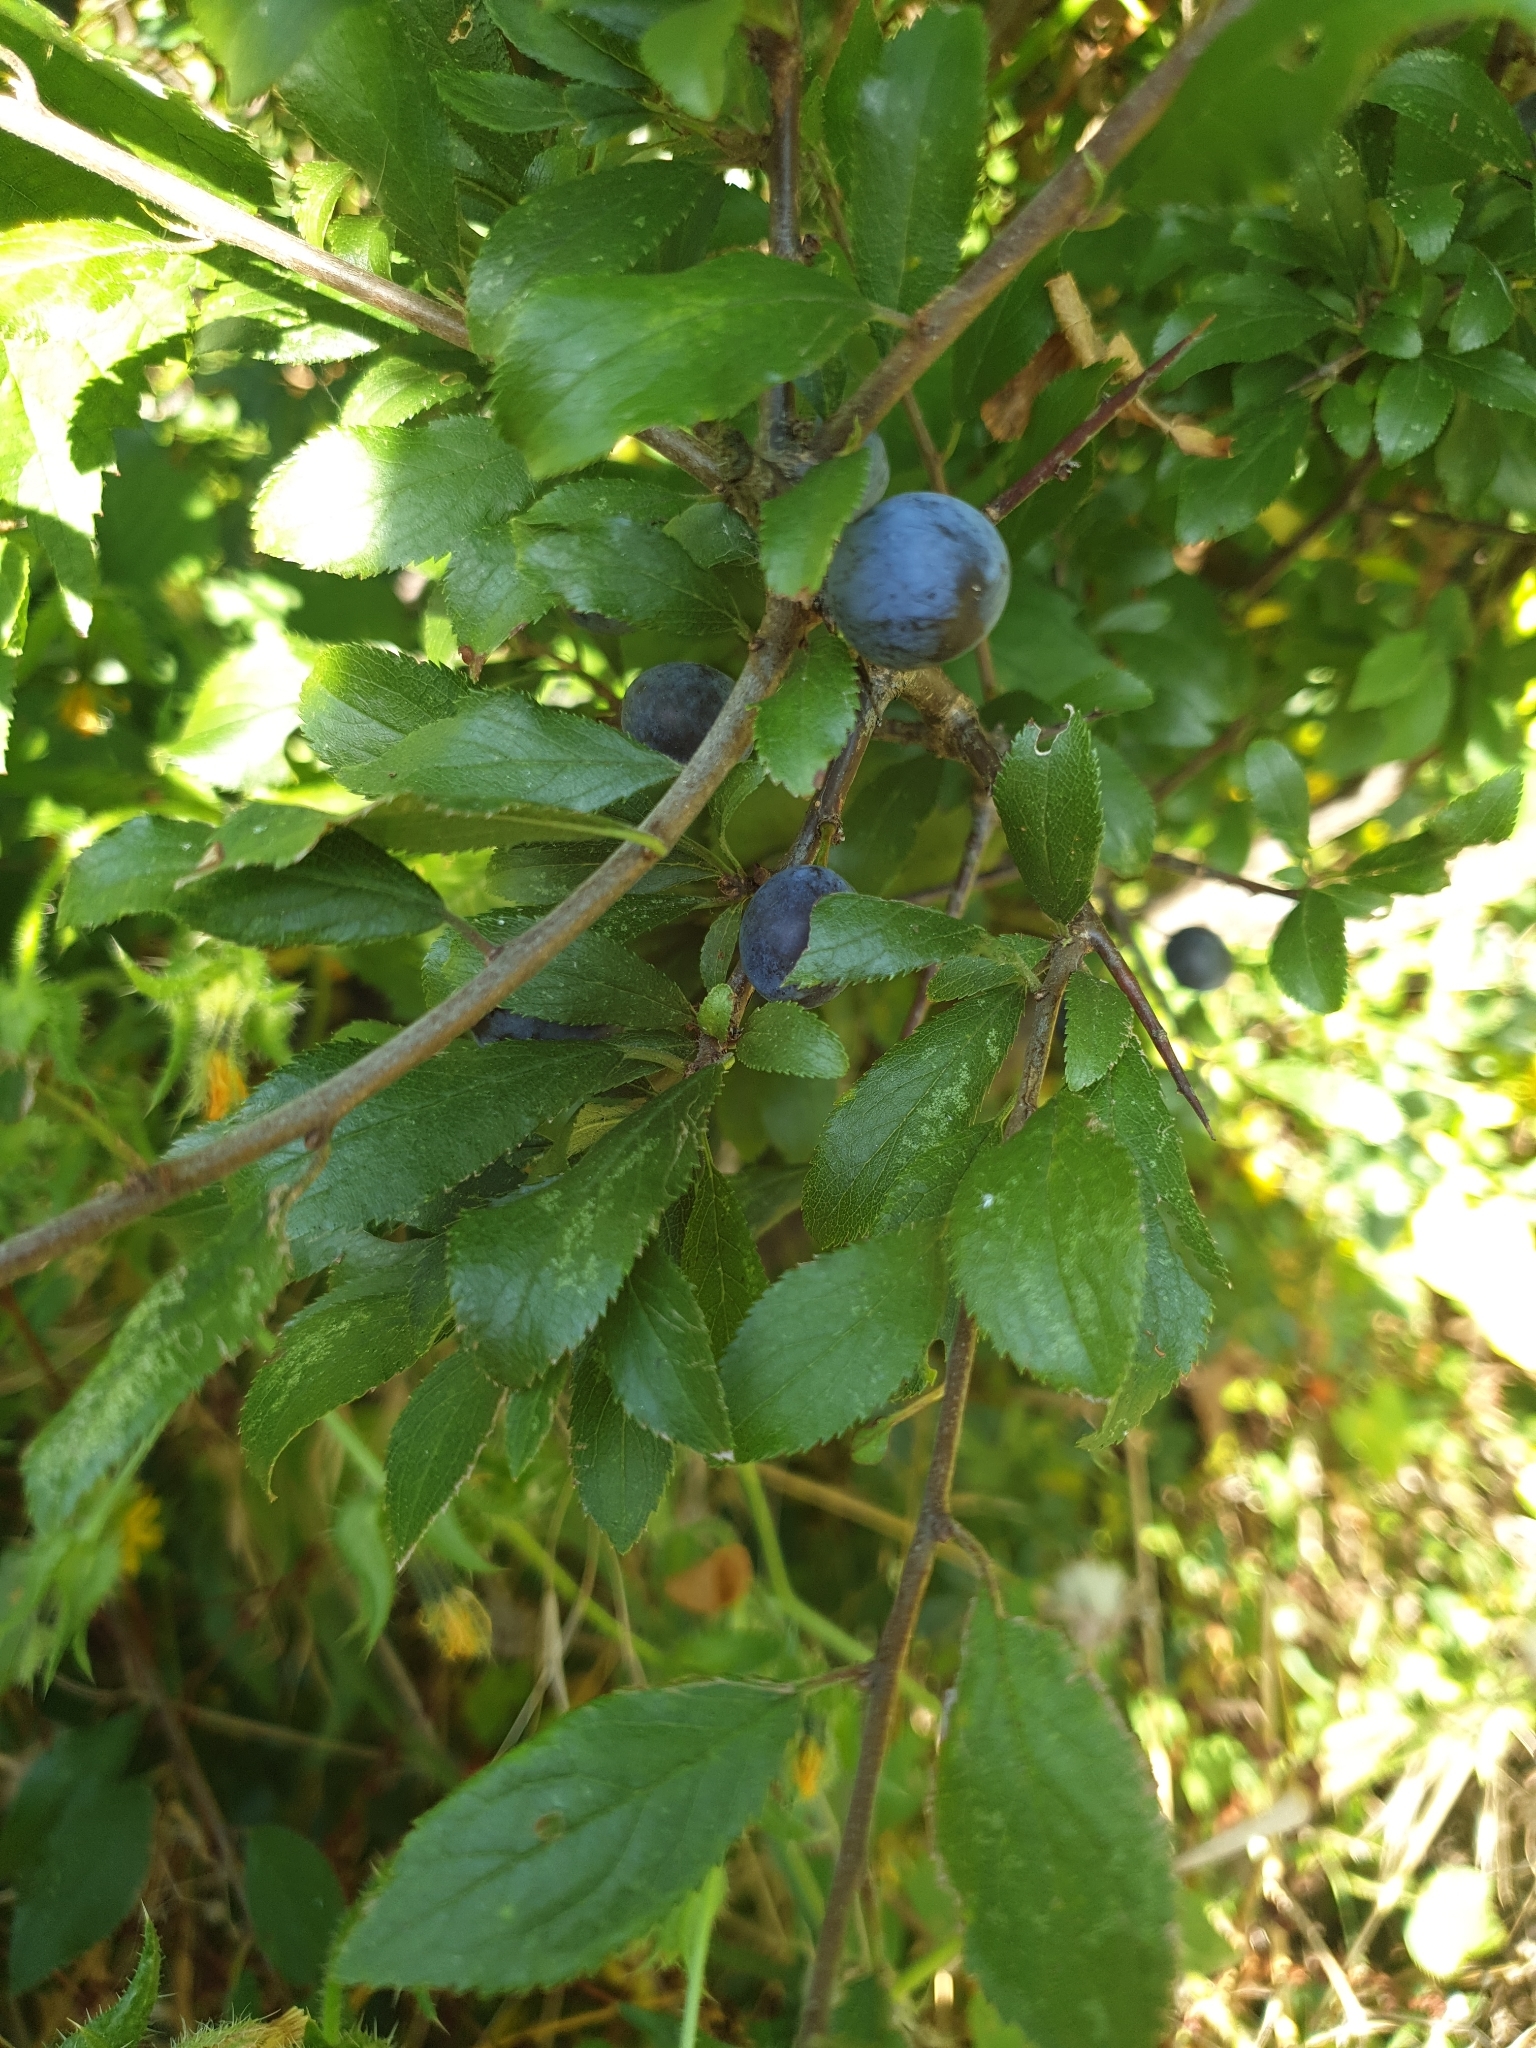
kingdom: Plantae
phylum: Tracheophyta
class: Magnoliopsida
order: Rosales
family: Rosaceae
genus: Prunus
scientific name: Prunus spinosa
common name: Blackthorn
